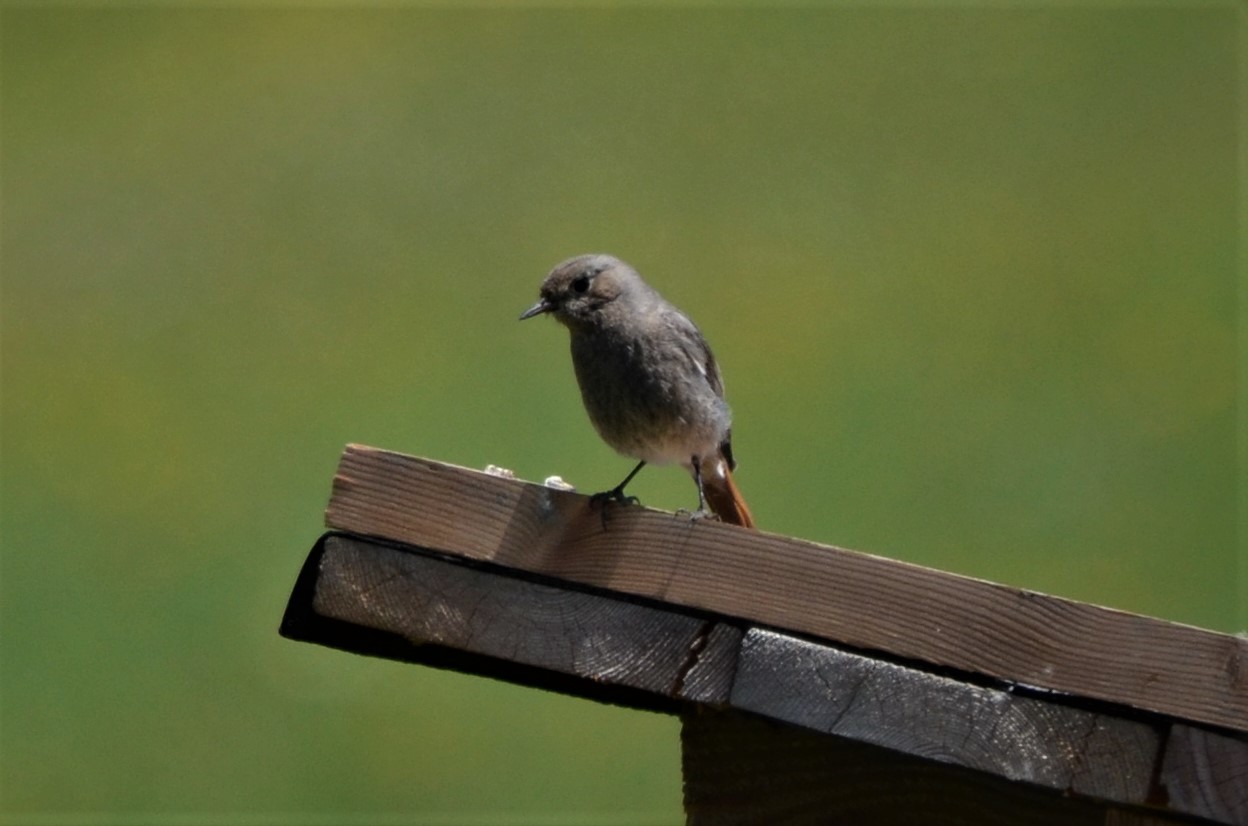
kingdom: Animalia
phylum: Chordata
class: Aves
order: Passeriformes
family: Muscicapidae
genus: Phoenicurus
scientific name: Phoenicurus ochruros
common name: Black redstart
